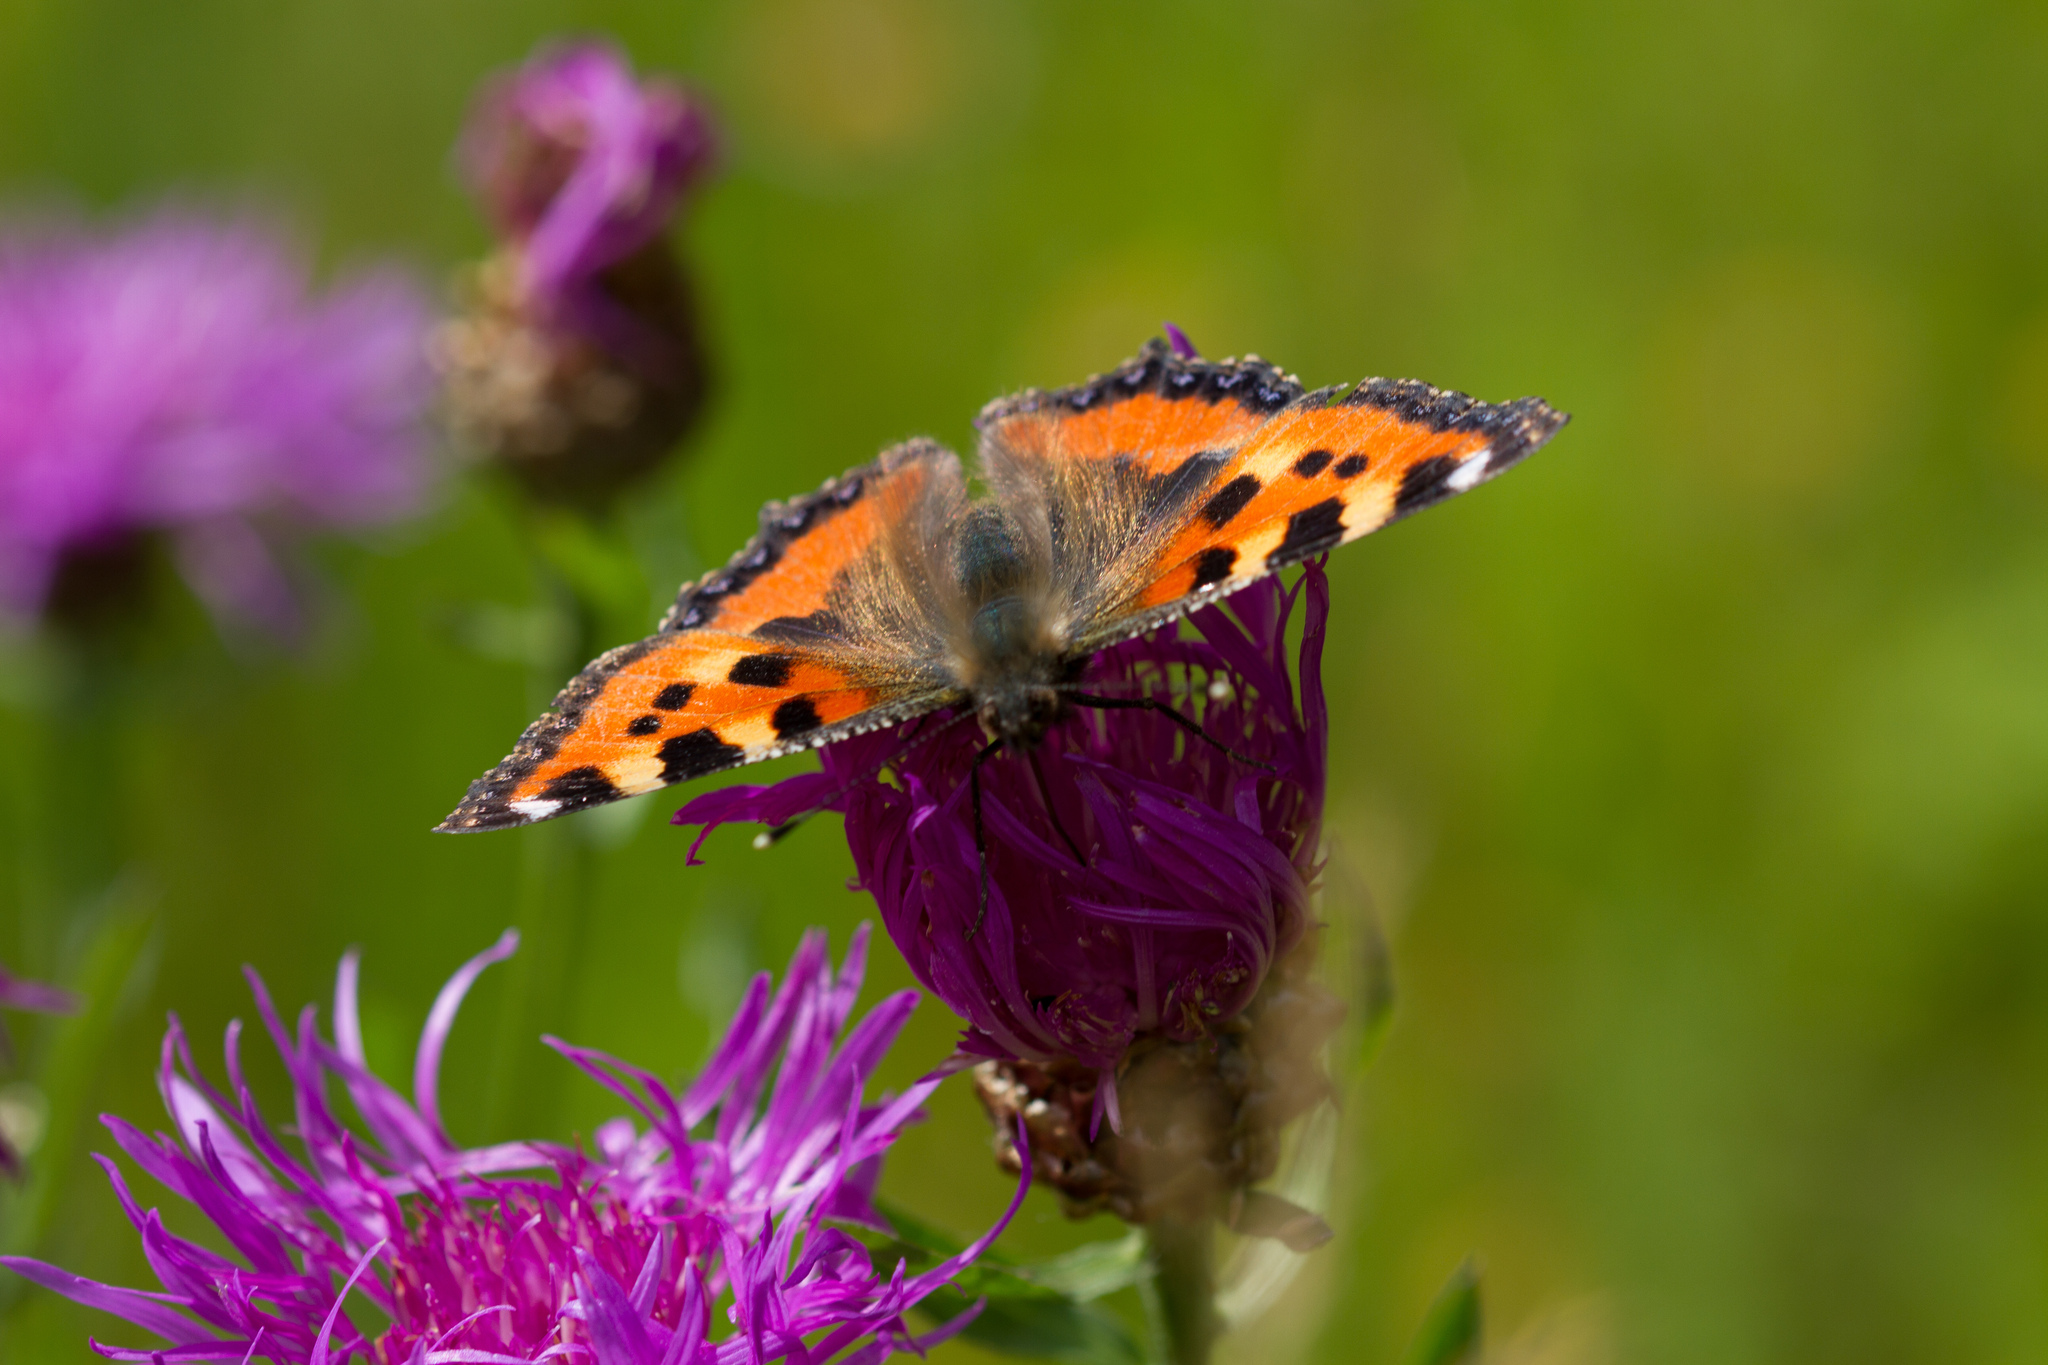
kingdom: Animalia
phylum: Arthropoda
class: Insecta
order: Lepidoptera
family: Nymphalidae
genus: Aglais
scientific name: Aglais urticae
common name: Small tortoiseshell
